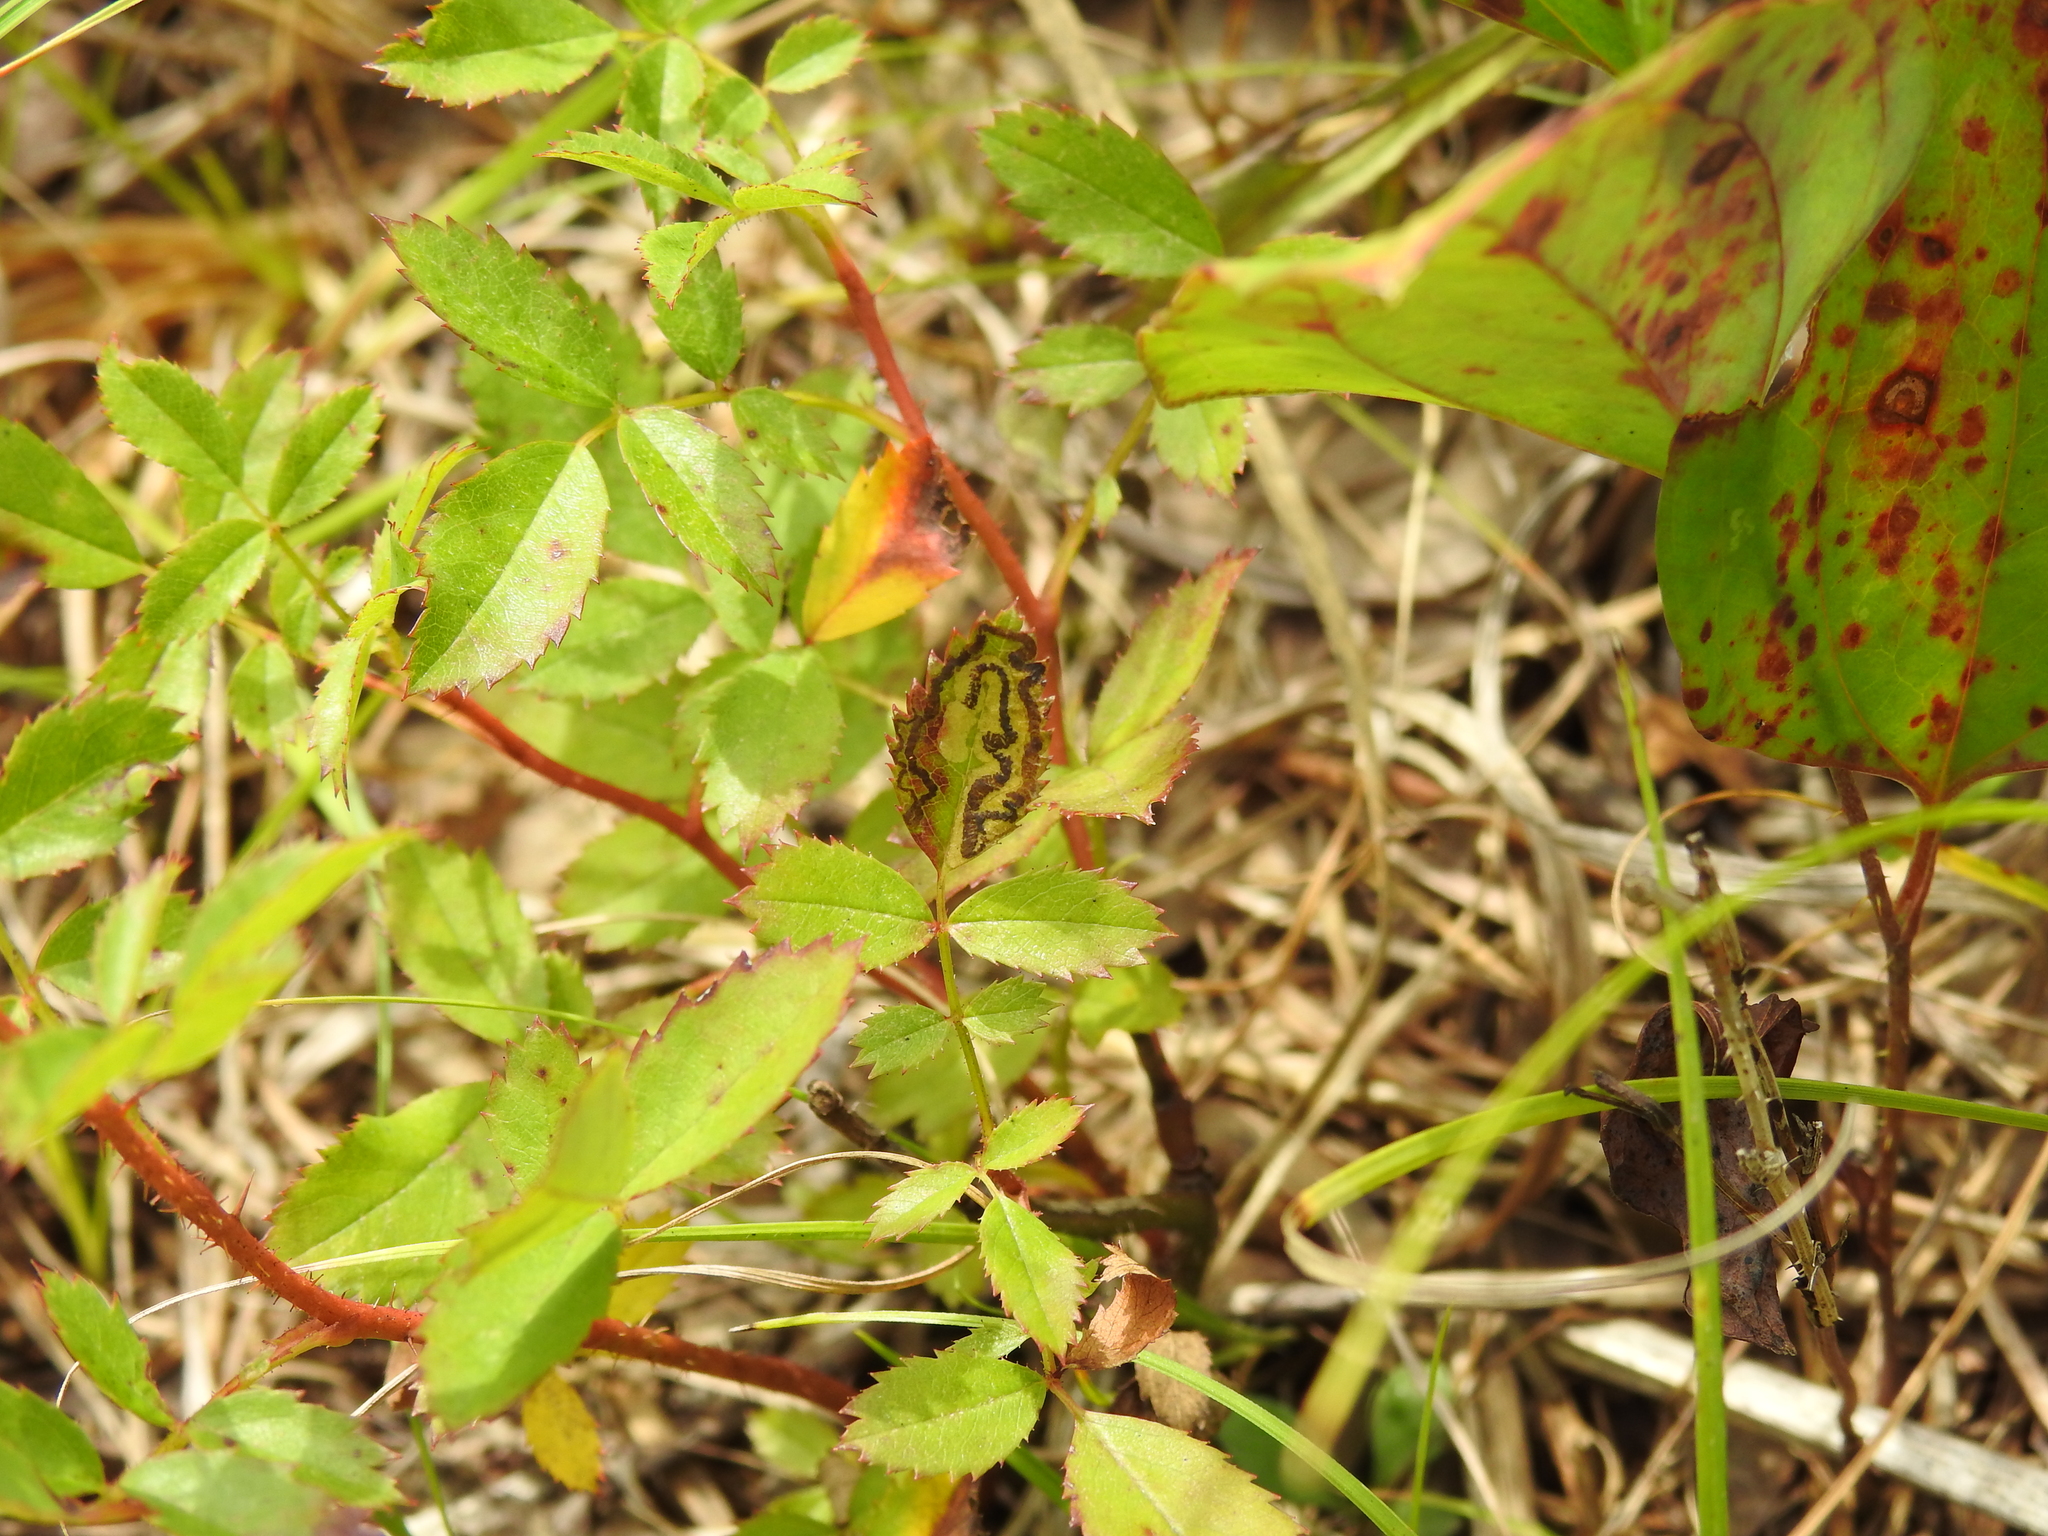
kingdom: Animalia
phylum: Arthropoda
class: Insecta
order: Lepidoptera
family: Nepticulidae
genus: Stigmella
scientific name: Stigmella rosaefoliella
